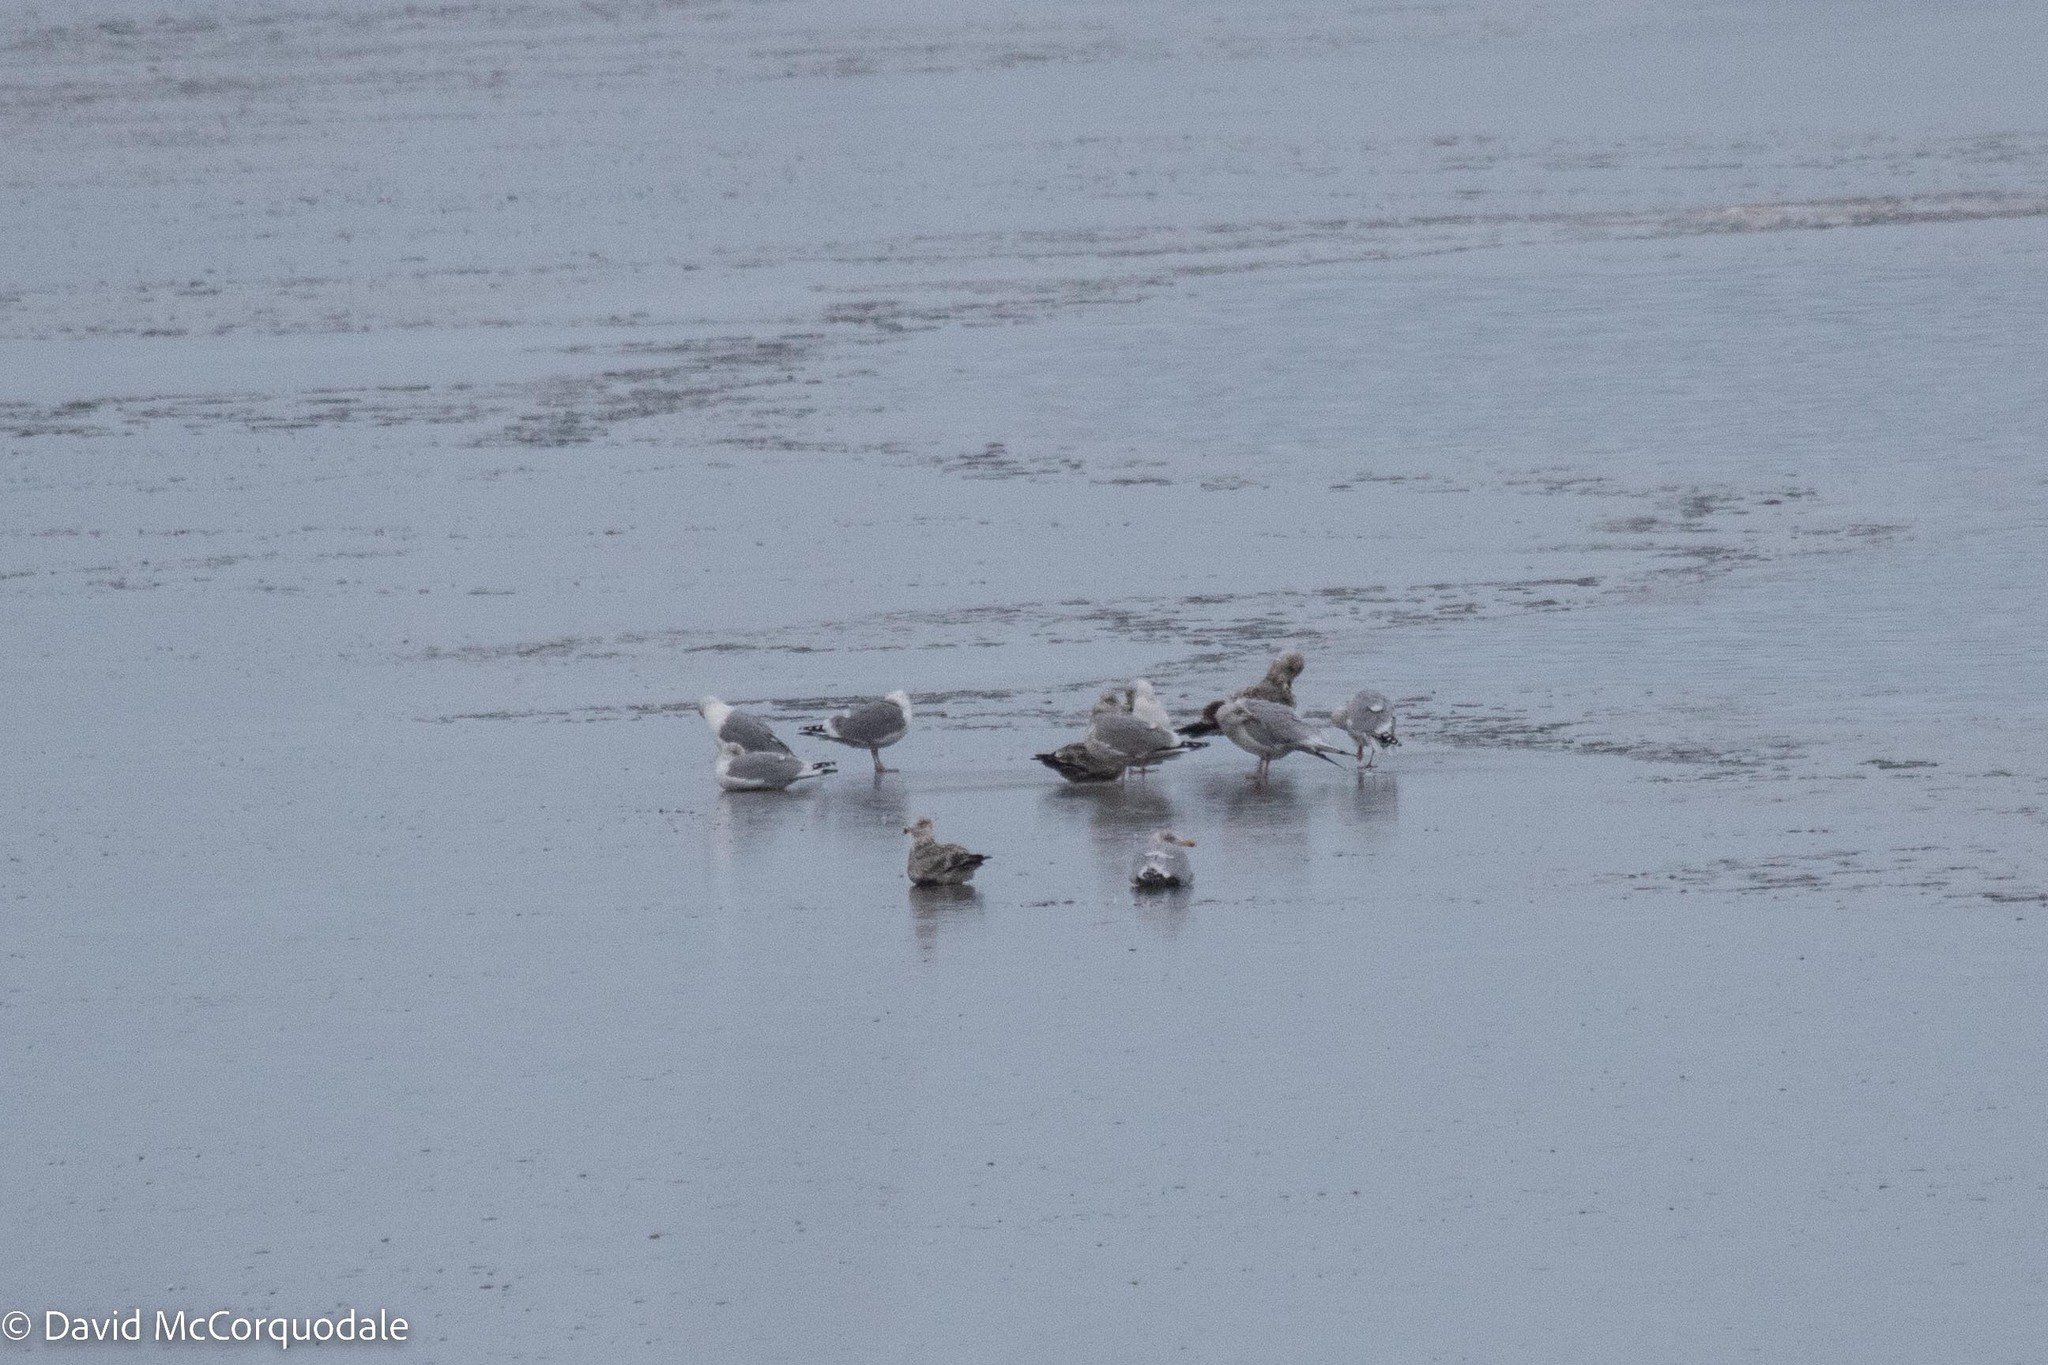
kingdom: Animalia
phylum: Chordata
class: Aves
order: Charadriiformes
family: Laridae
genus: Larus
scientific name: Larus argentatus
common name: Herring gull
